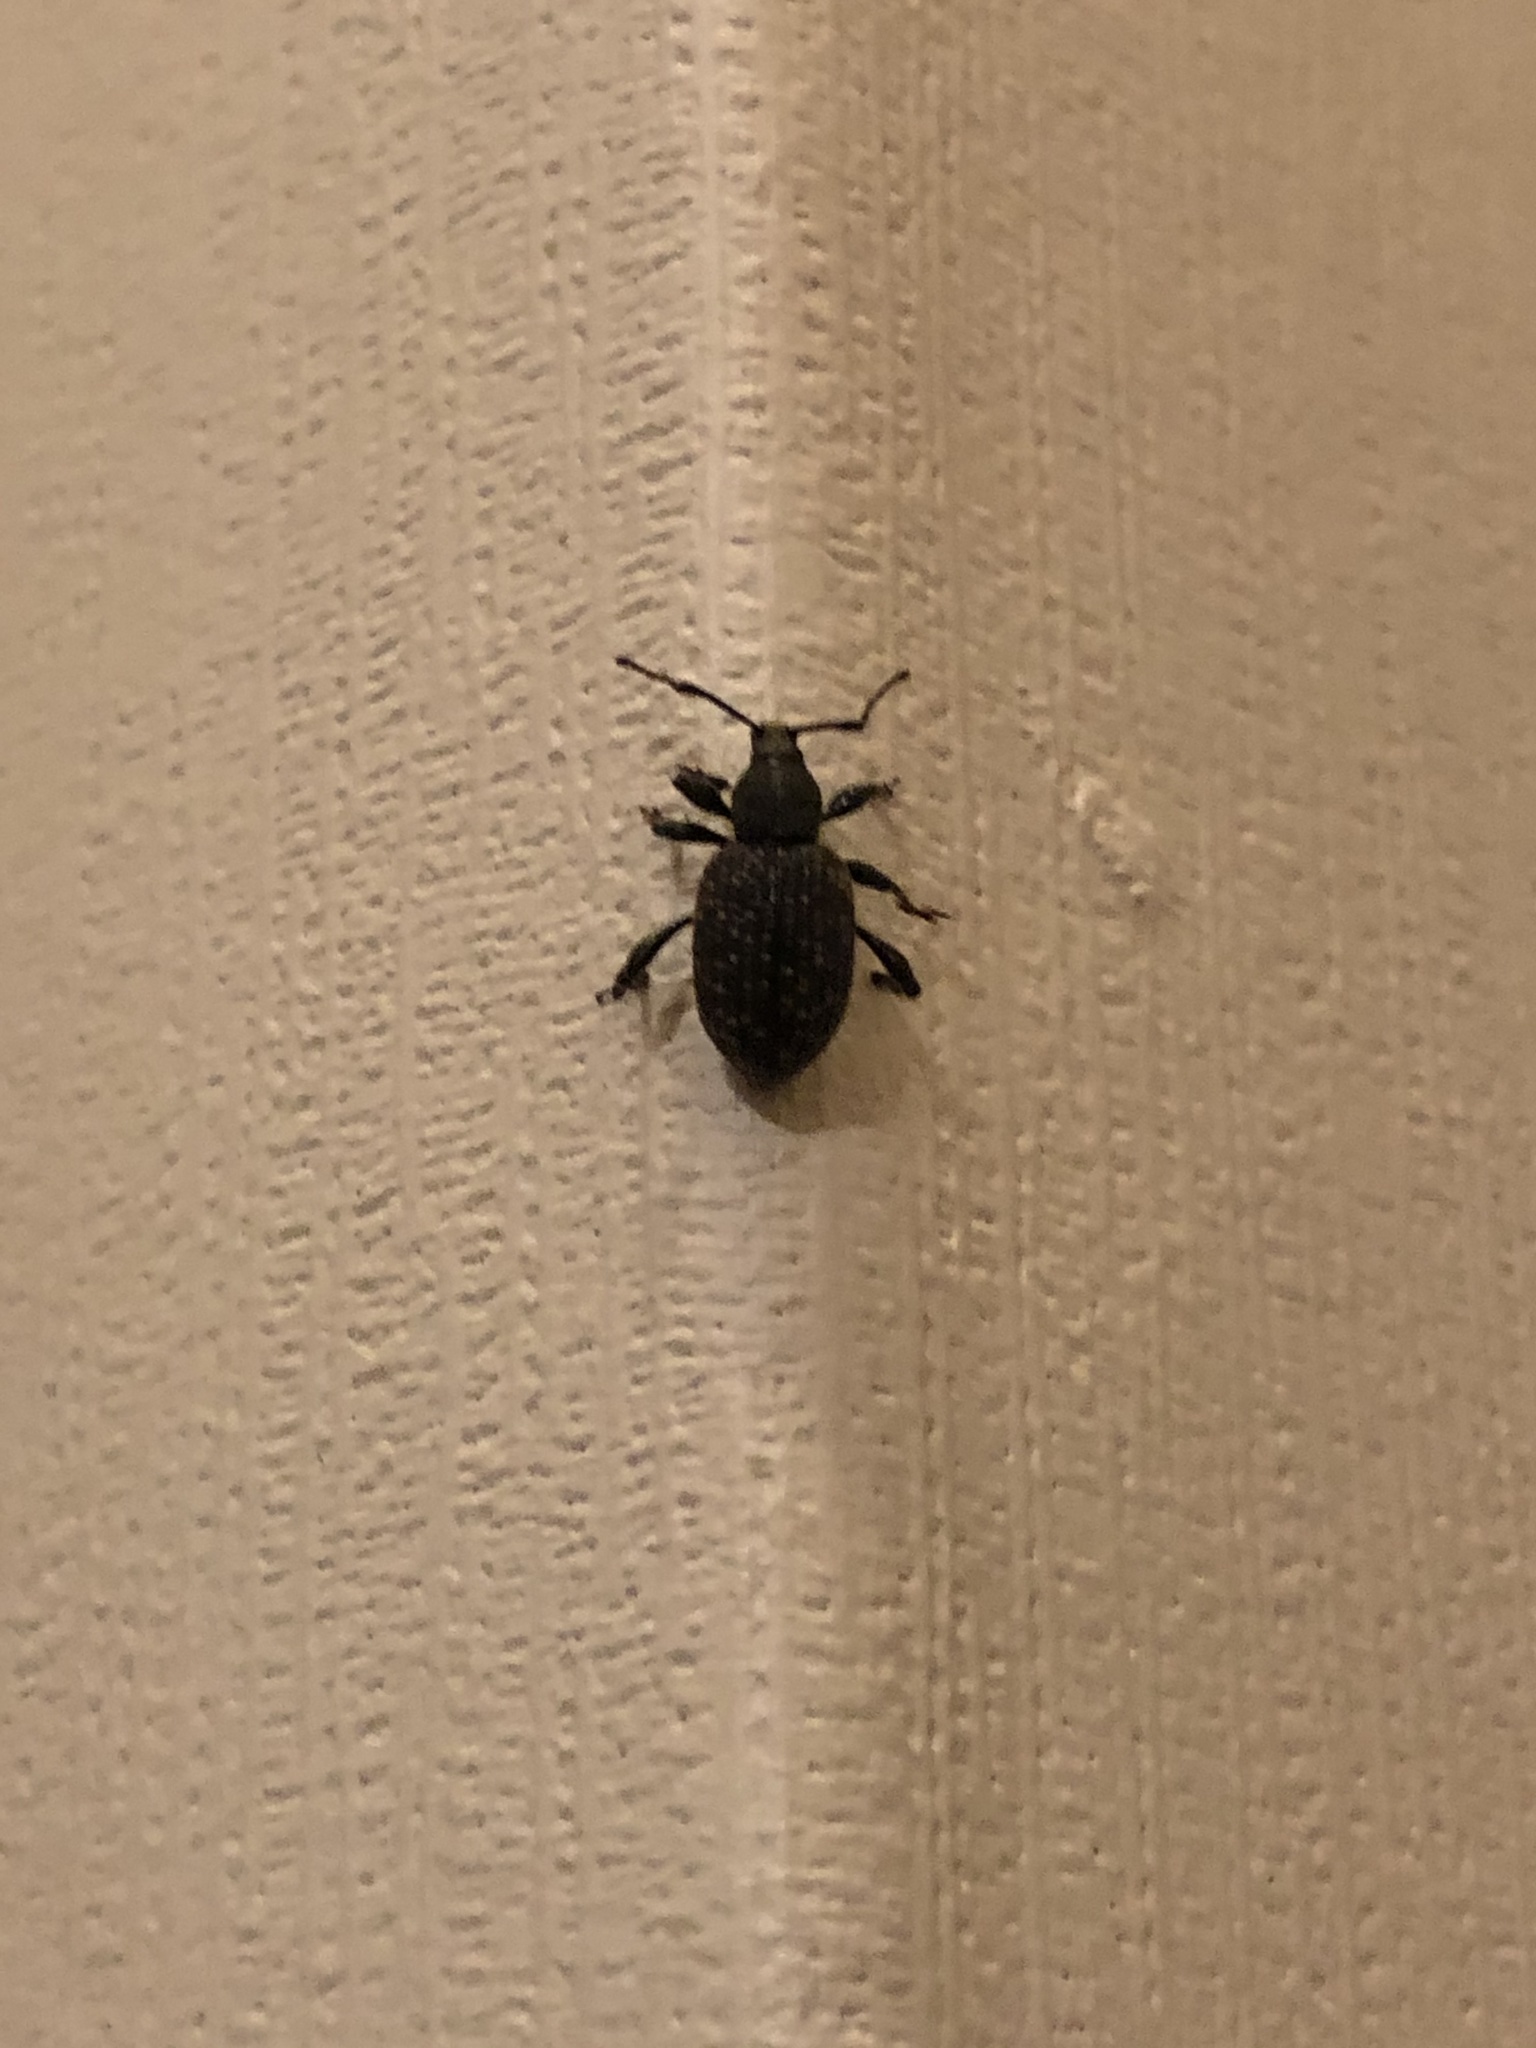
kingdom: Animalia
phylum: Arthropoda
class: Insecta
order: Coleoptera
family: Curculionidae
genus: Otiorhynchus
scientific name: Otiorhynchus sulcatus
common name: Black vine weevil
